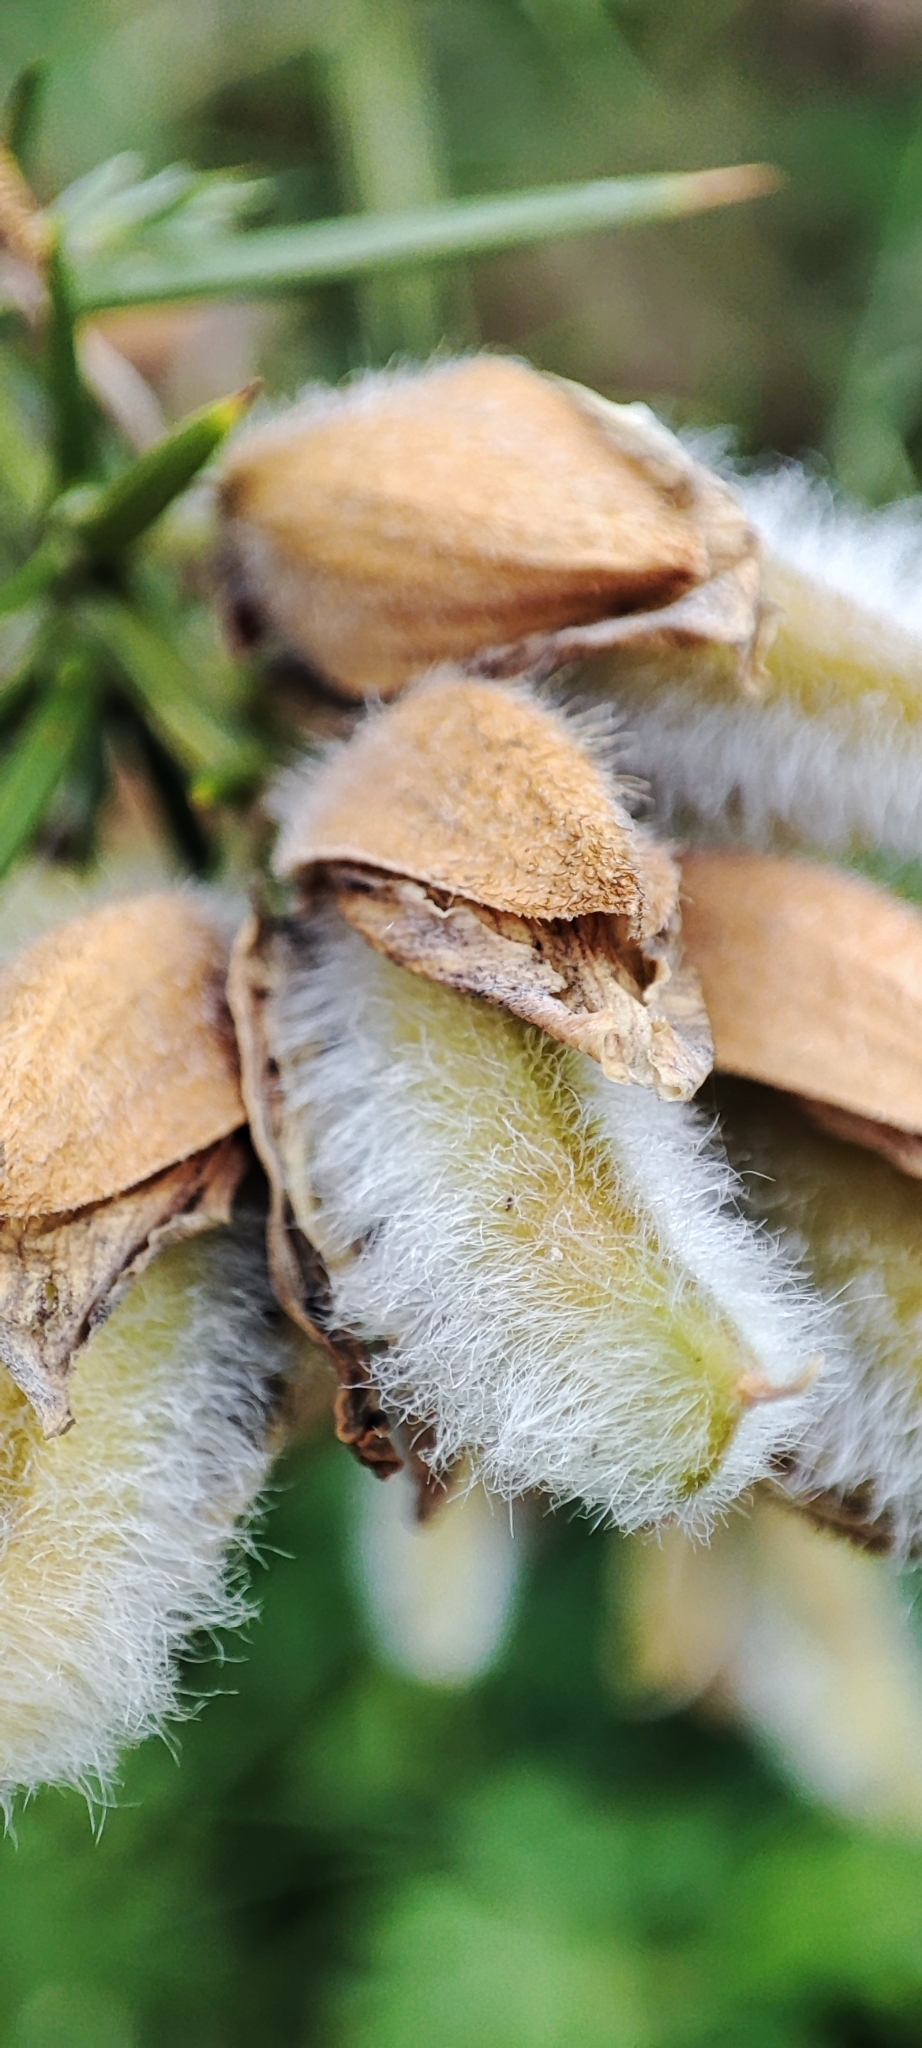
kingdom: Plantae
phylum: Tracheophyta
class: Magnoliopsida
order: Fabales
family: Fabaceae
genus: Ulex
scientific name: Ulex europaeus
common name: Common gorse
